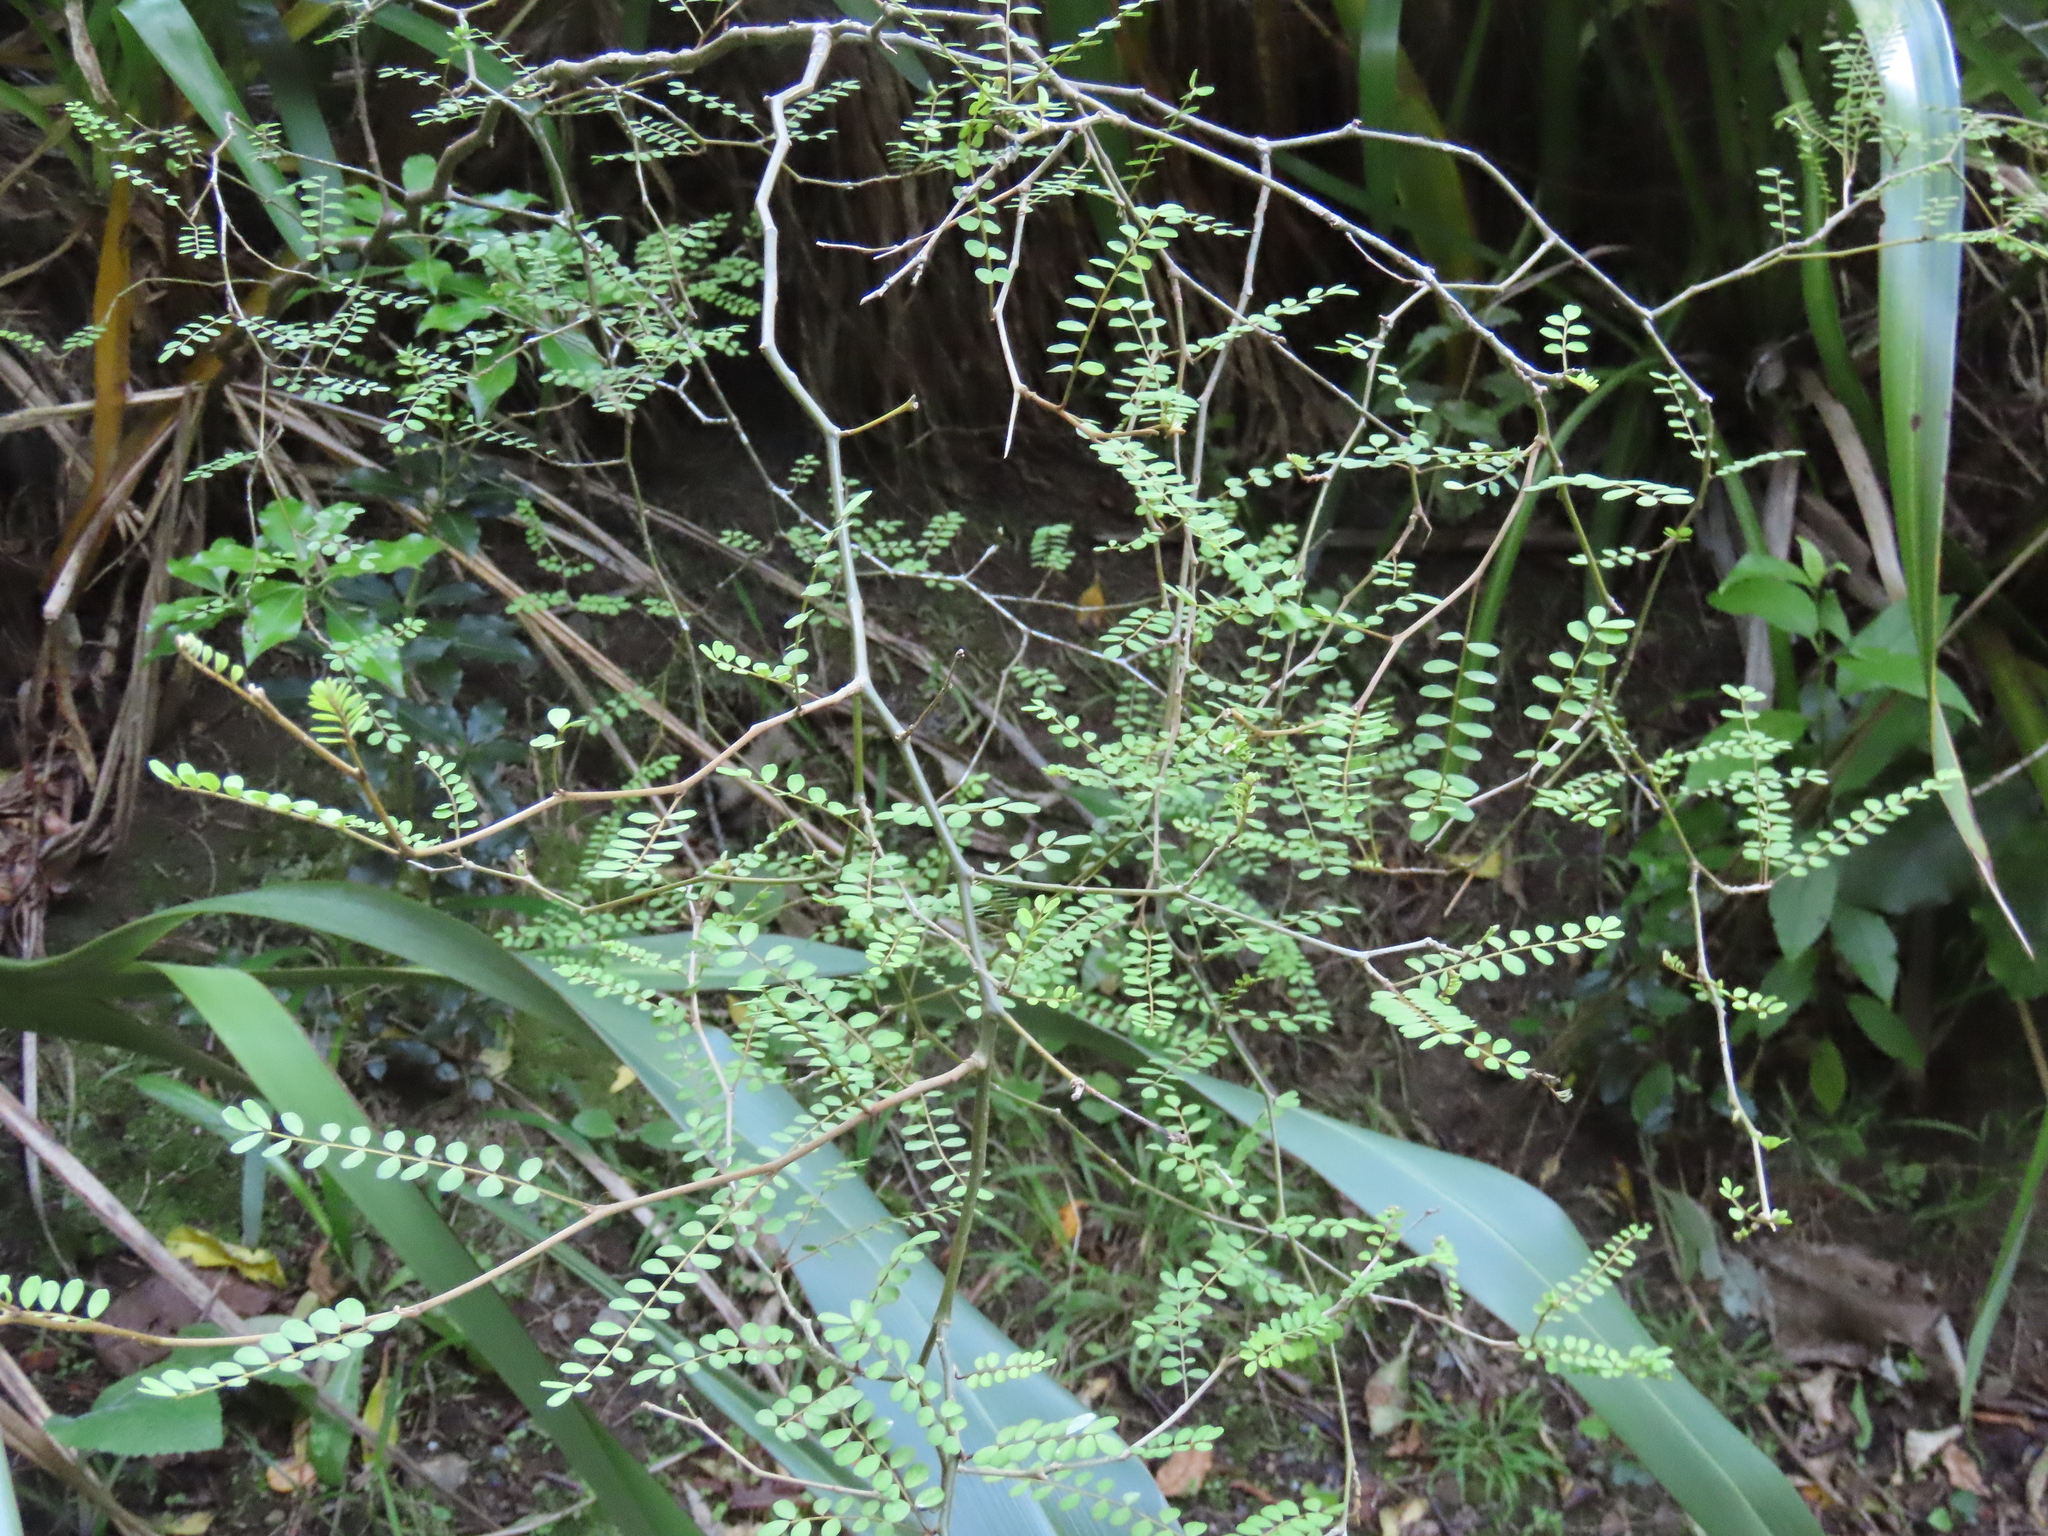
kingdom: Plantae
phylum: Tracheophyta
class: Magnoliopsida
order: Fabales
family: Fabaceae
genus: Sophora
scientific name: Sophora microphylla
